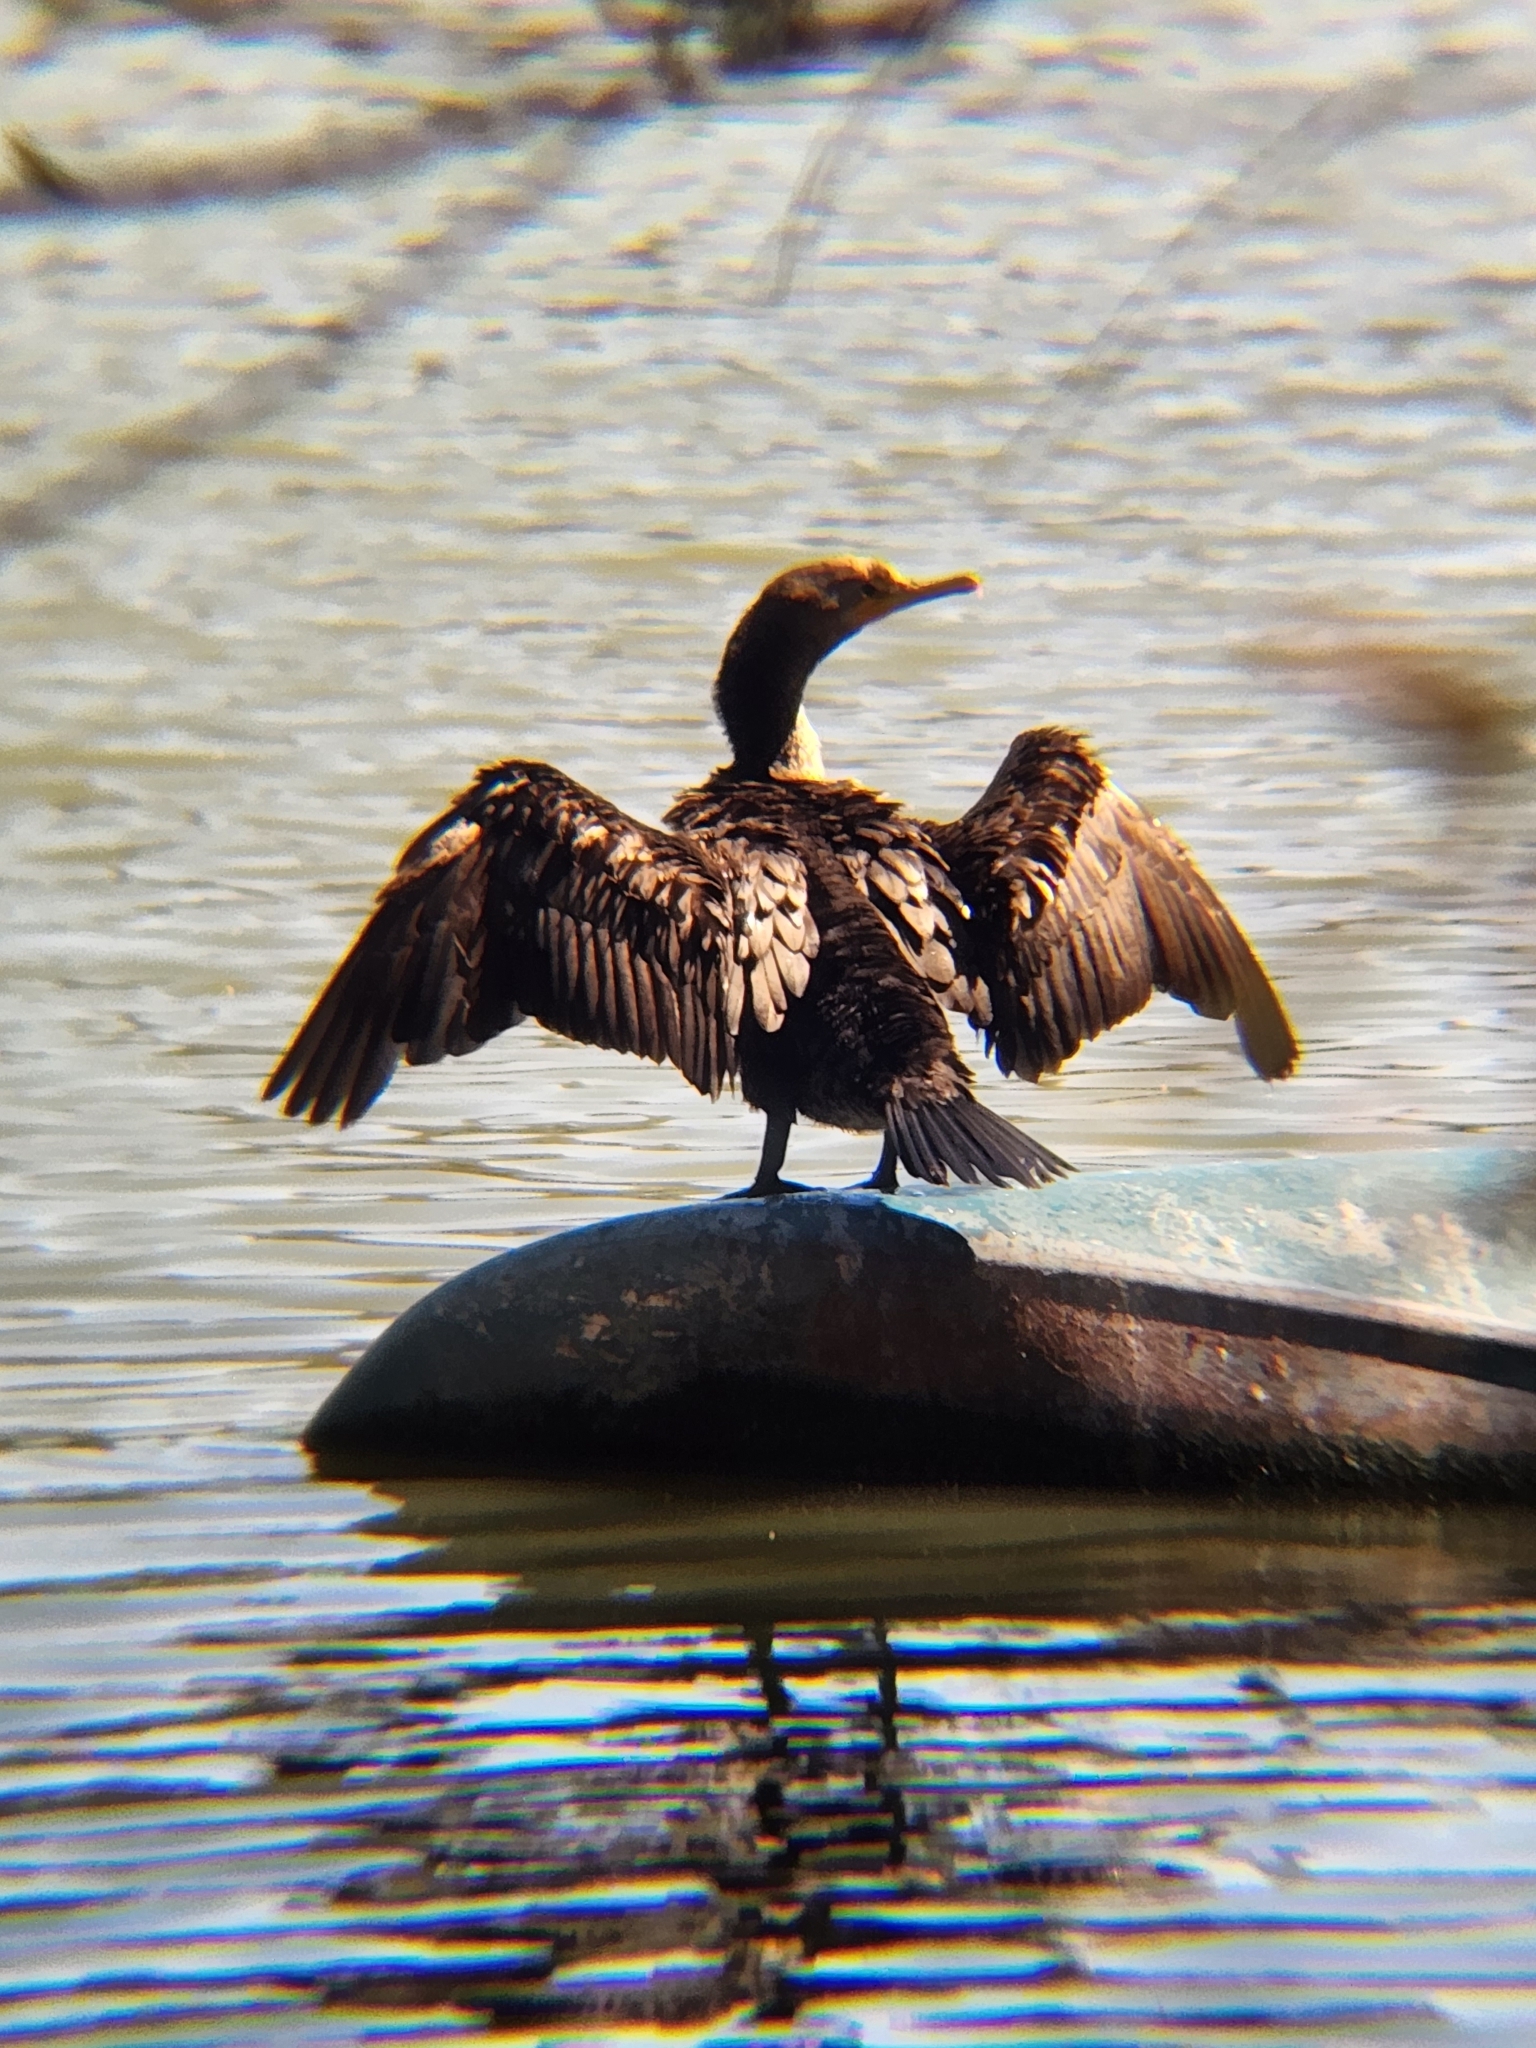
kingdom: Animalia
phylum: Chordata
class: Aves
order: Suliformes
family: Phalacrocoracidae
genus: Phalacrocorax
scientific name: Phalacrocorax auritus
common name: Double-crested cormorant
